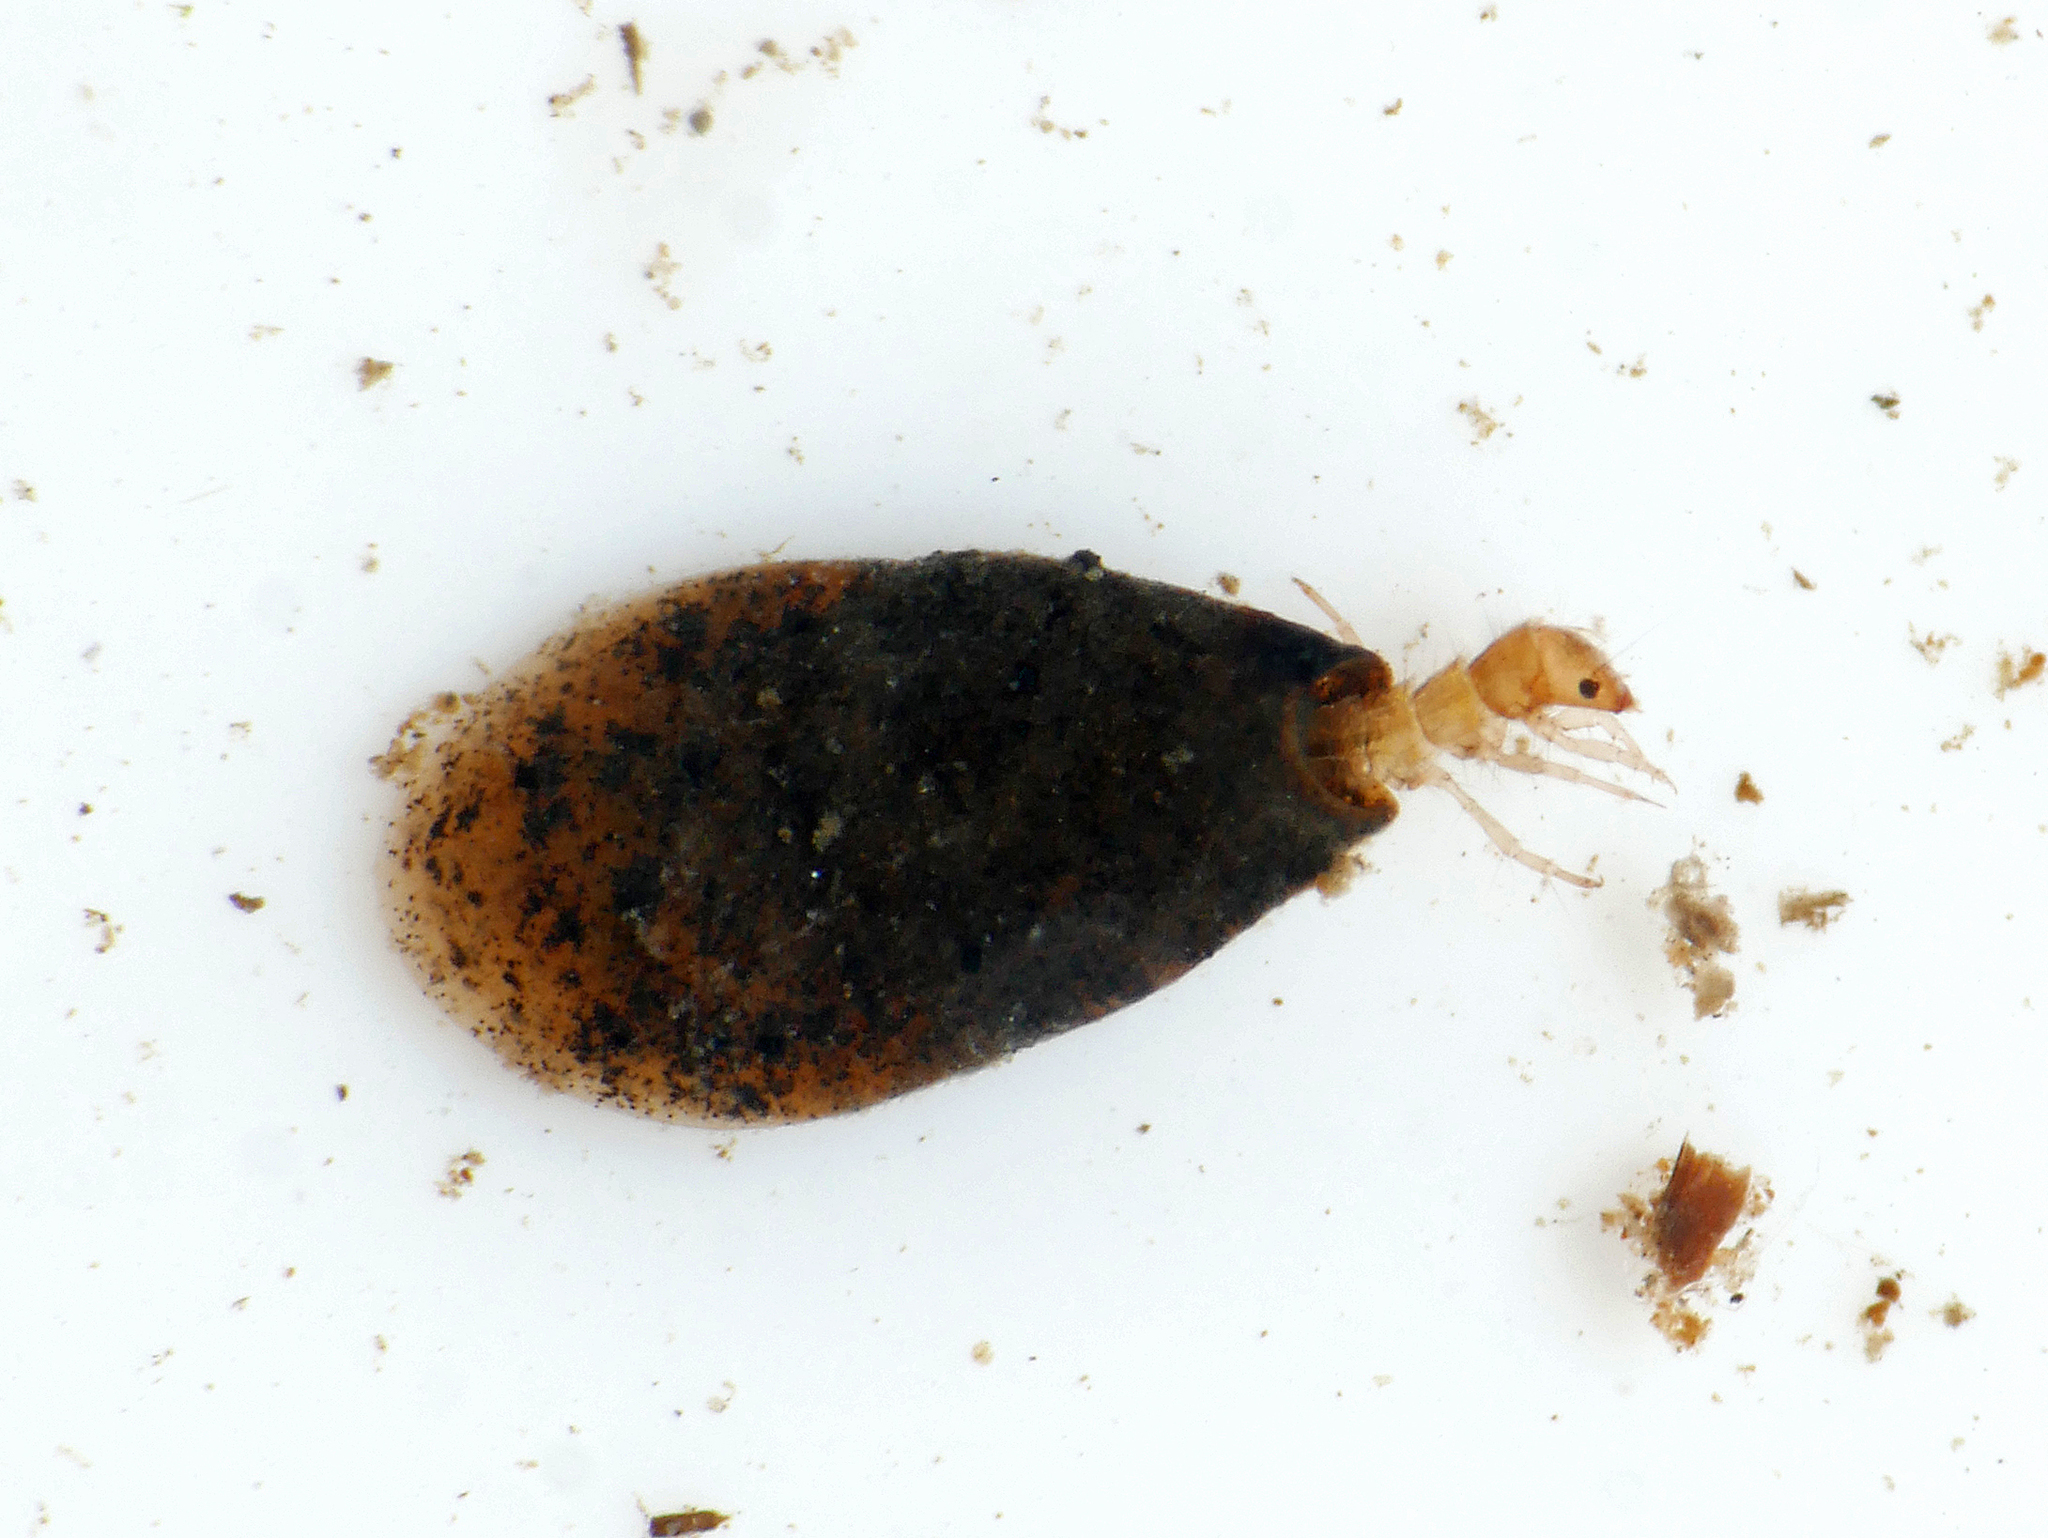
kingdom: Animalia
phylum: Arthropoda
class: Insecta
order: Trichoptera
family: Hydroptilidae
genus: Ithytrichia
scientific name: Ithytrichia lamellaris
